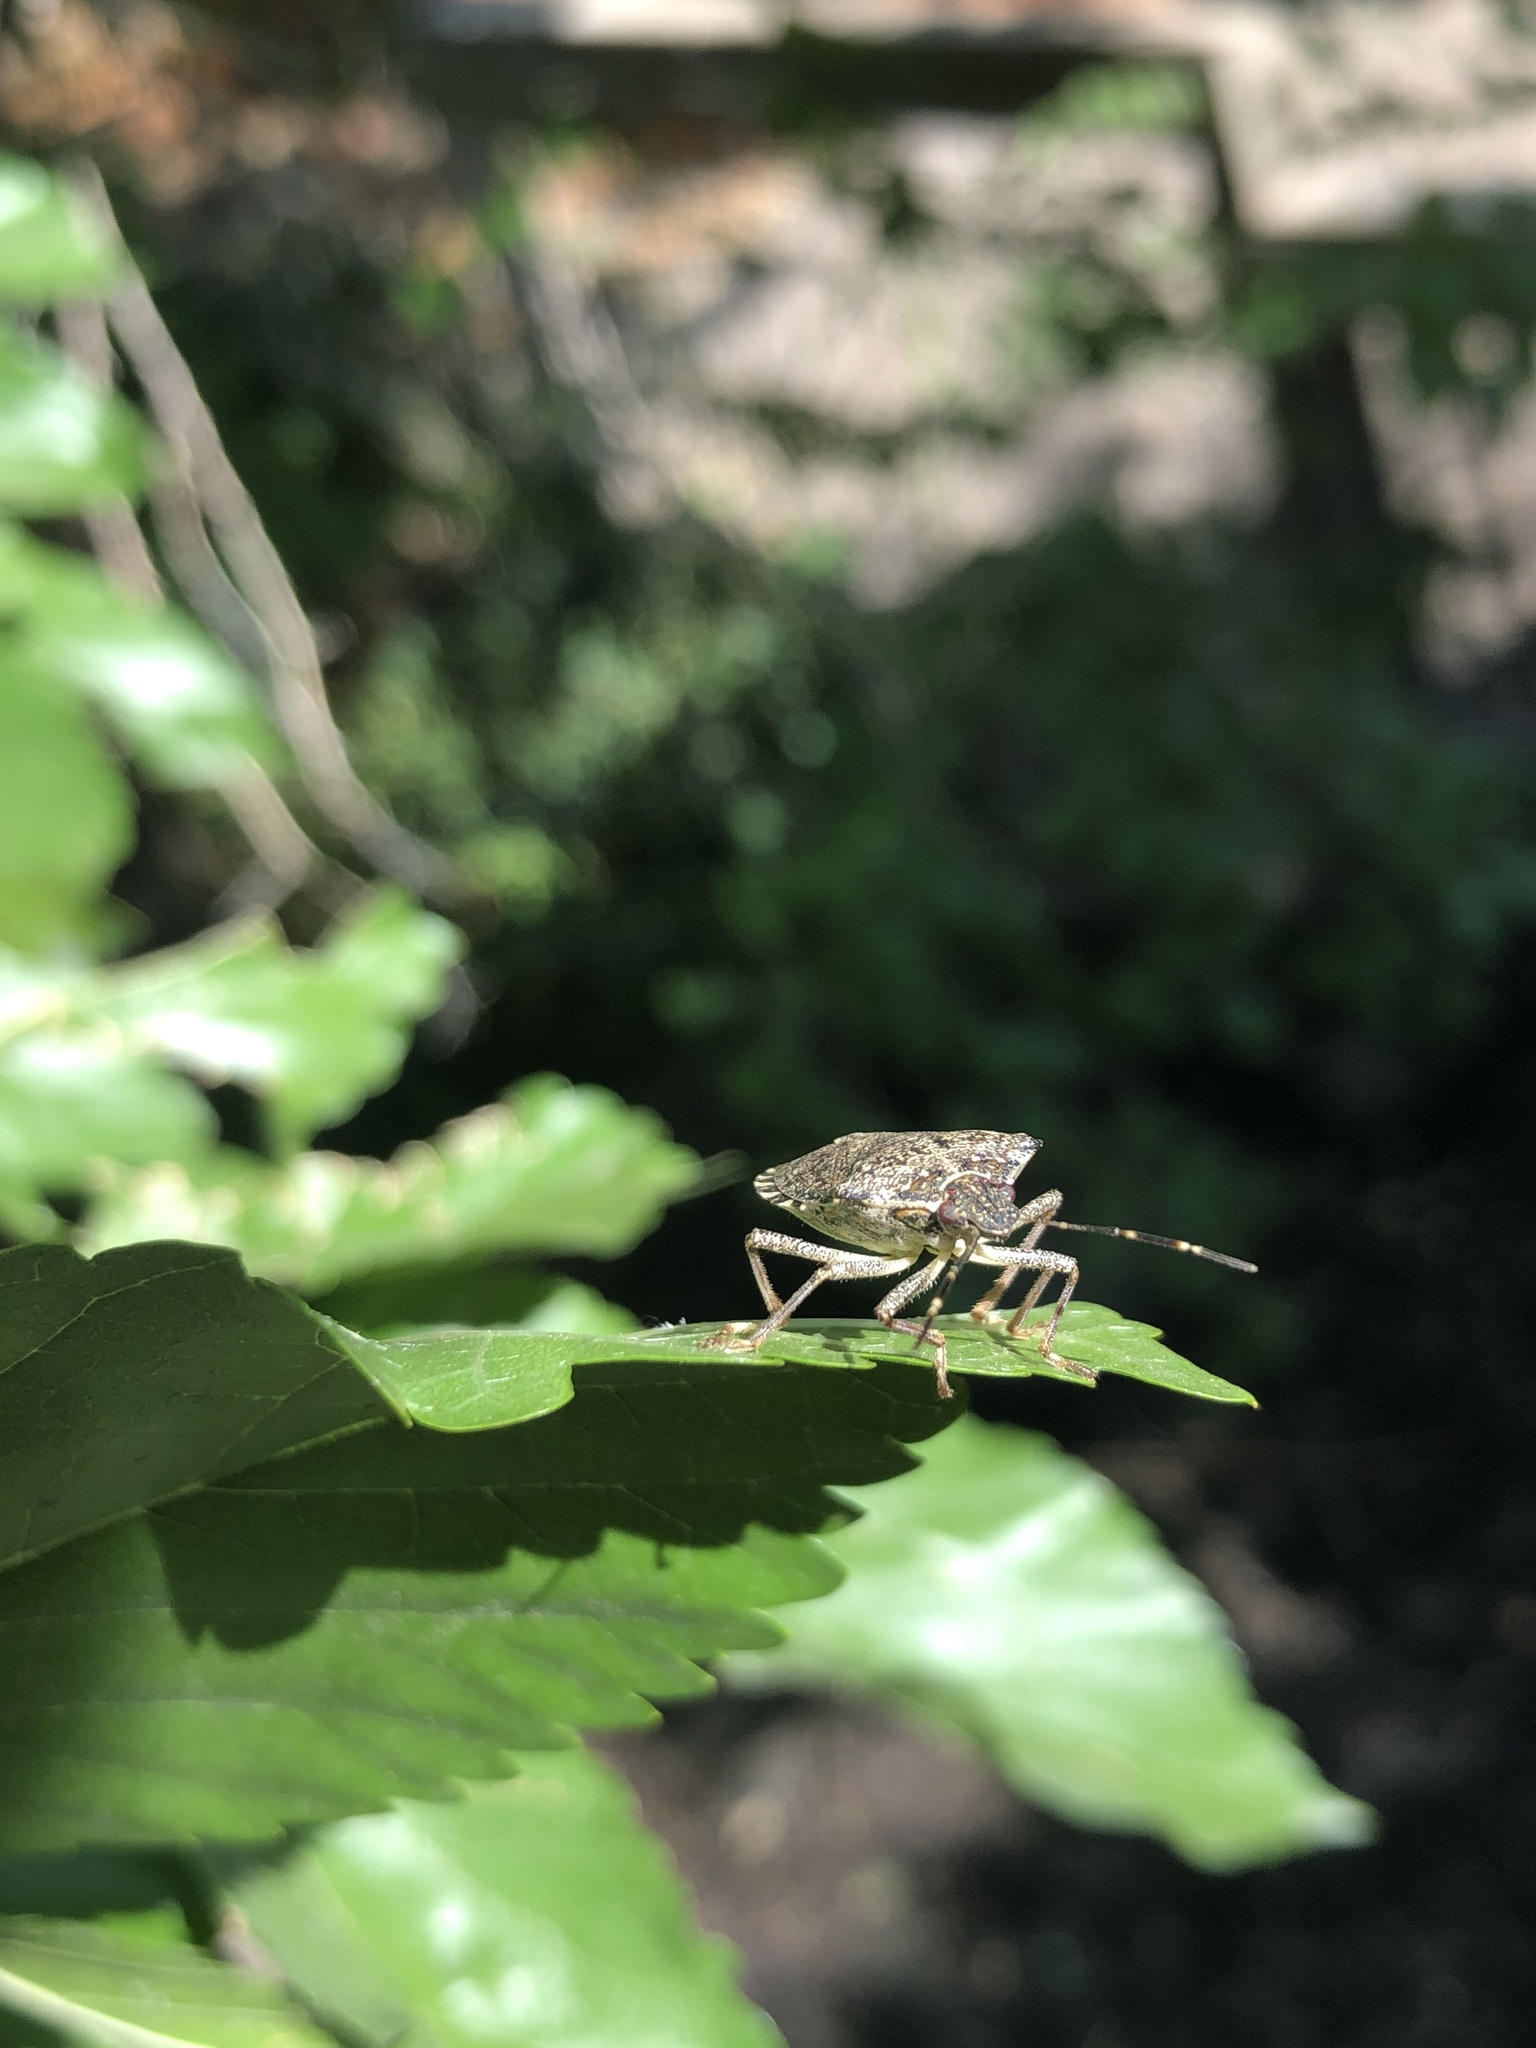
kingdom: Animalia
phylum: Arthropoda
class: Insecta
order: Hemiptera
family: Pentatomidae
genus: Halyomorpha
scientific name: Halyomorpha halys
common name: Brown marmorated stink bug
